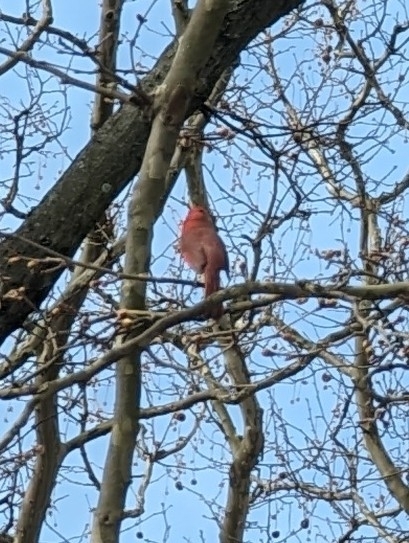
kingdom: Animalia
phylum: Chordata
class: Aves
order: Passeriformes
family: Cardinalidae
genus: Cardinalis
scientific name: Cardinalis cardinalis
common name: Northern cardinal
